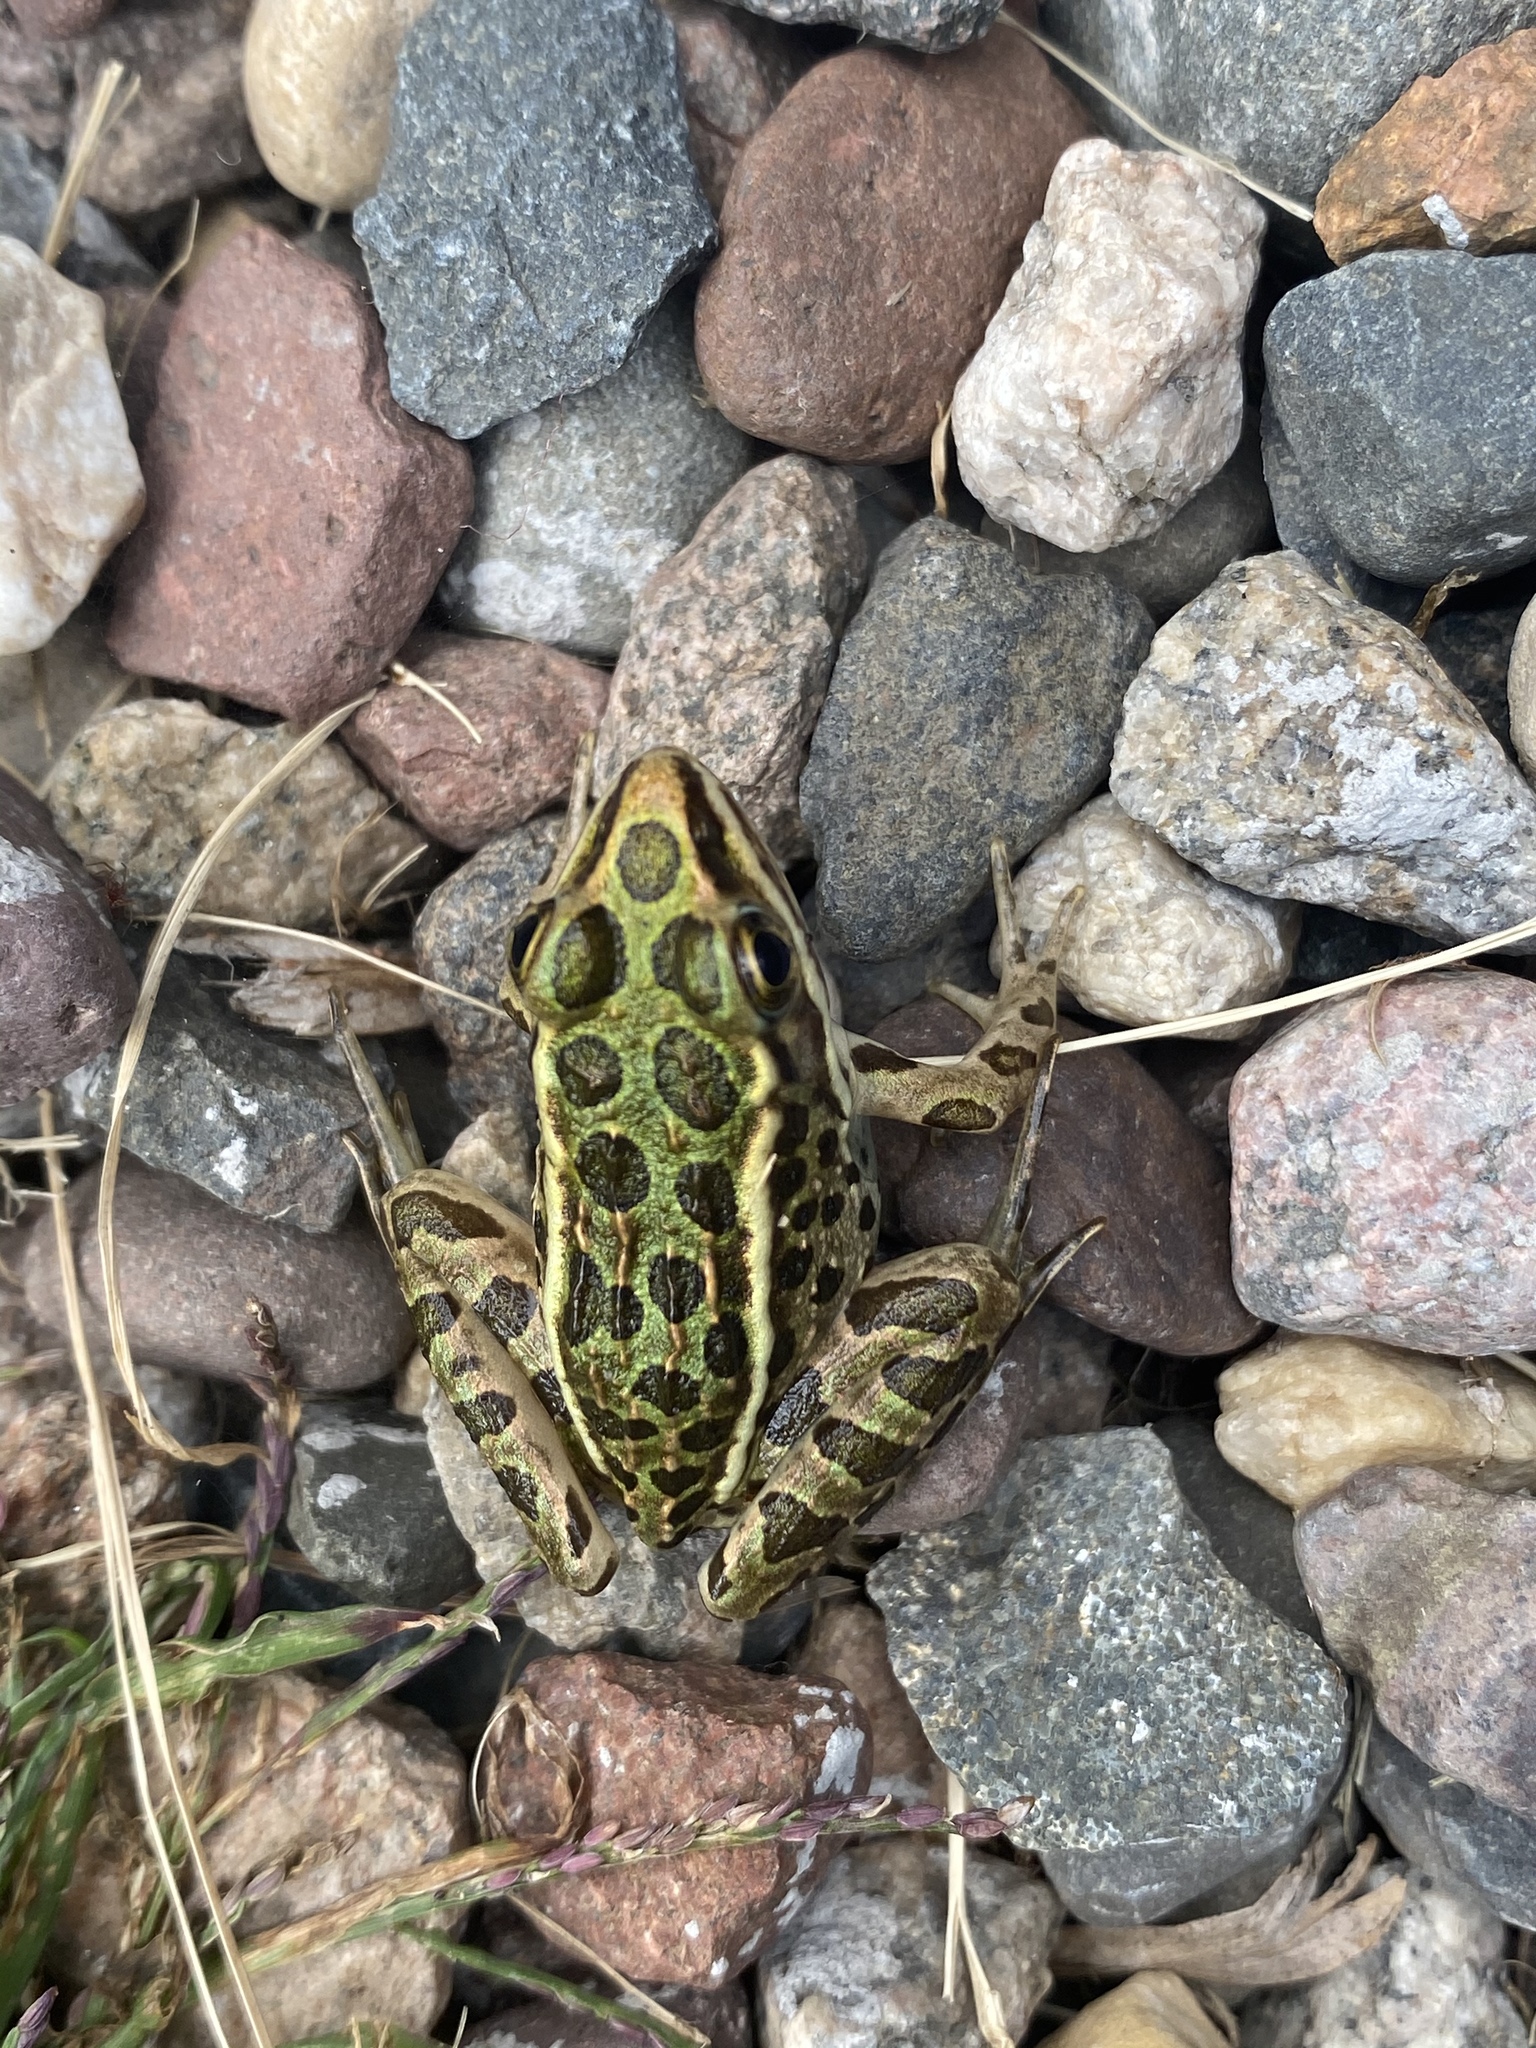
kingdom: Animalia
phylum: Chordata
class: Amphibia
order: Anura
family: Ranidae
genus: Lithobates
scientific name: Lithobates pipiens
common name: Northern leopard frog
